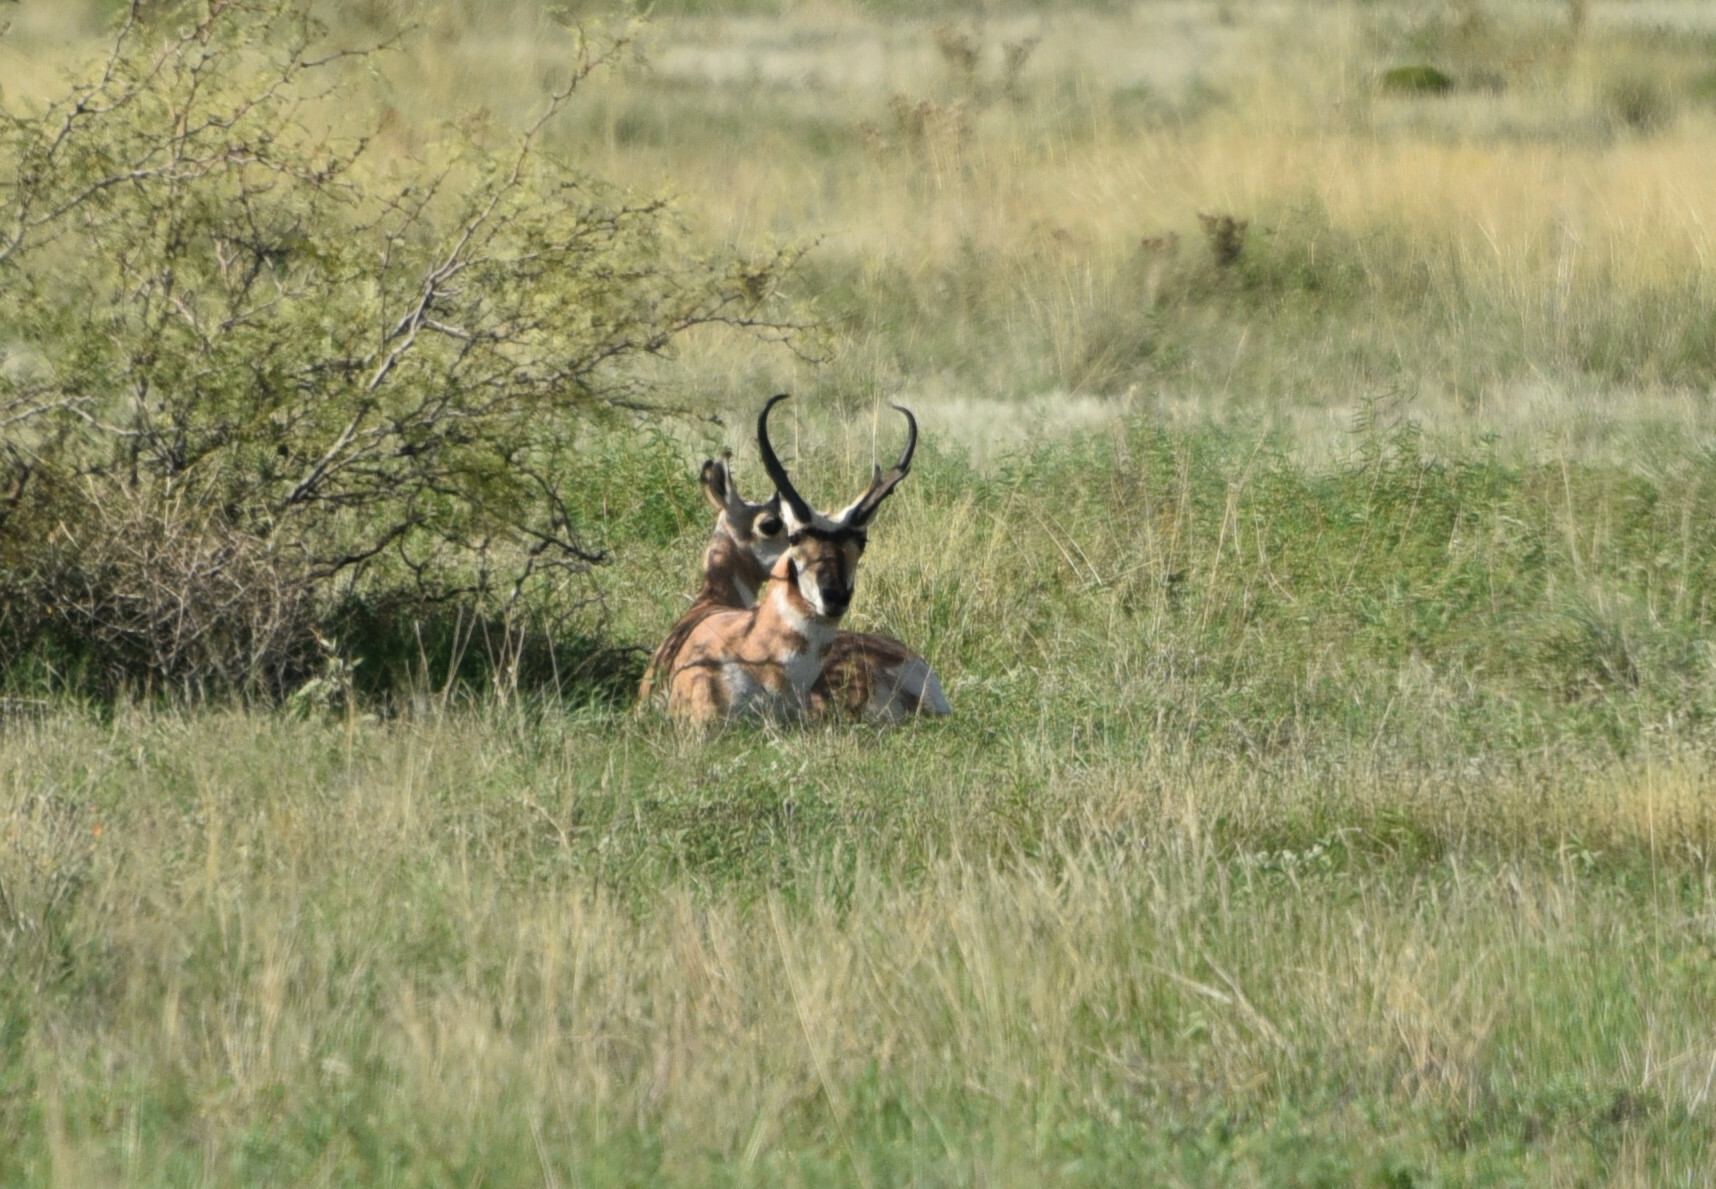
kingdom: Animalia
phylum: Chordata
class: Mammalia
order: Artiodactyla
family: Antilocapridae
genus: Antilocapra
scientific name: Antilocapra americana
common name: Pronghorn
